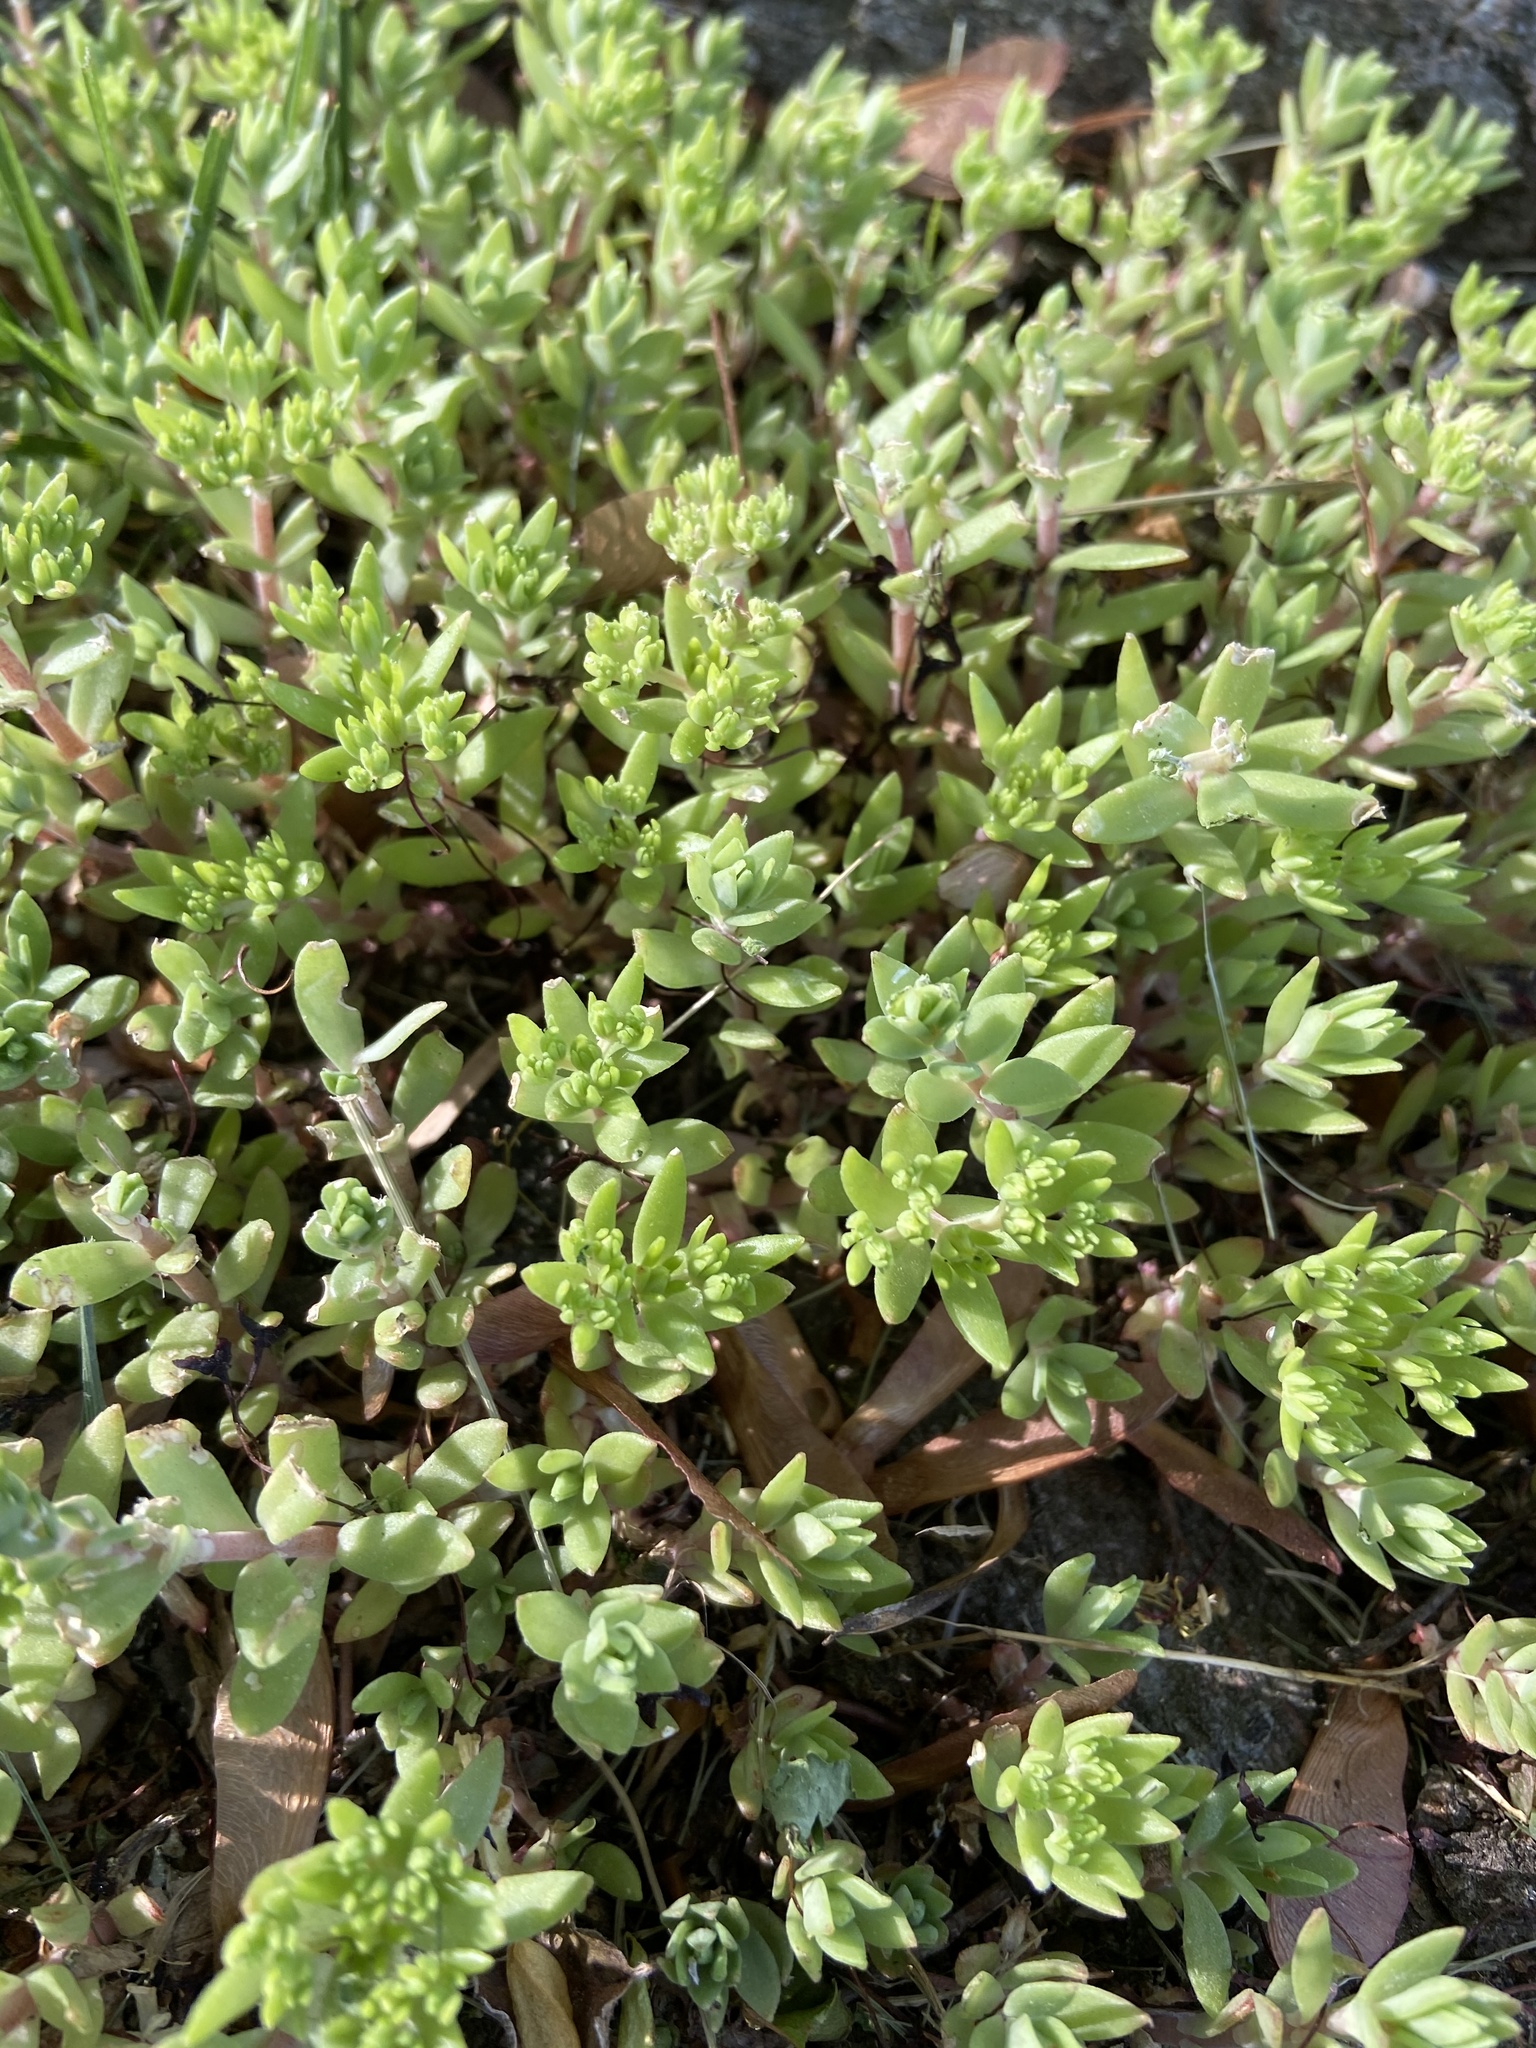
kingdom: Plantae
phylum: Tracheophyta
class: Magnoliopsida
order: Saxifragales
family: Crassulaceae
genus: Sedum
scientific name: Sedum sarmentosum
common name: Stringy stonecrop
